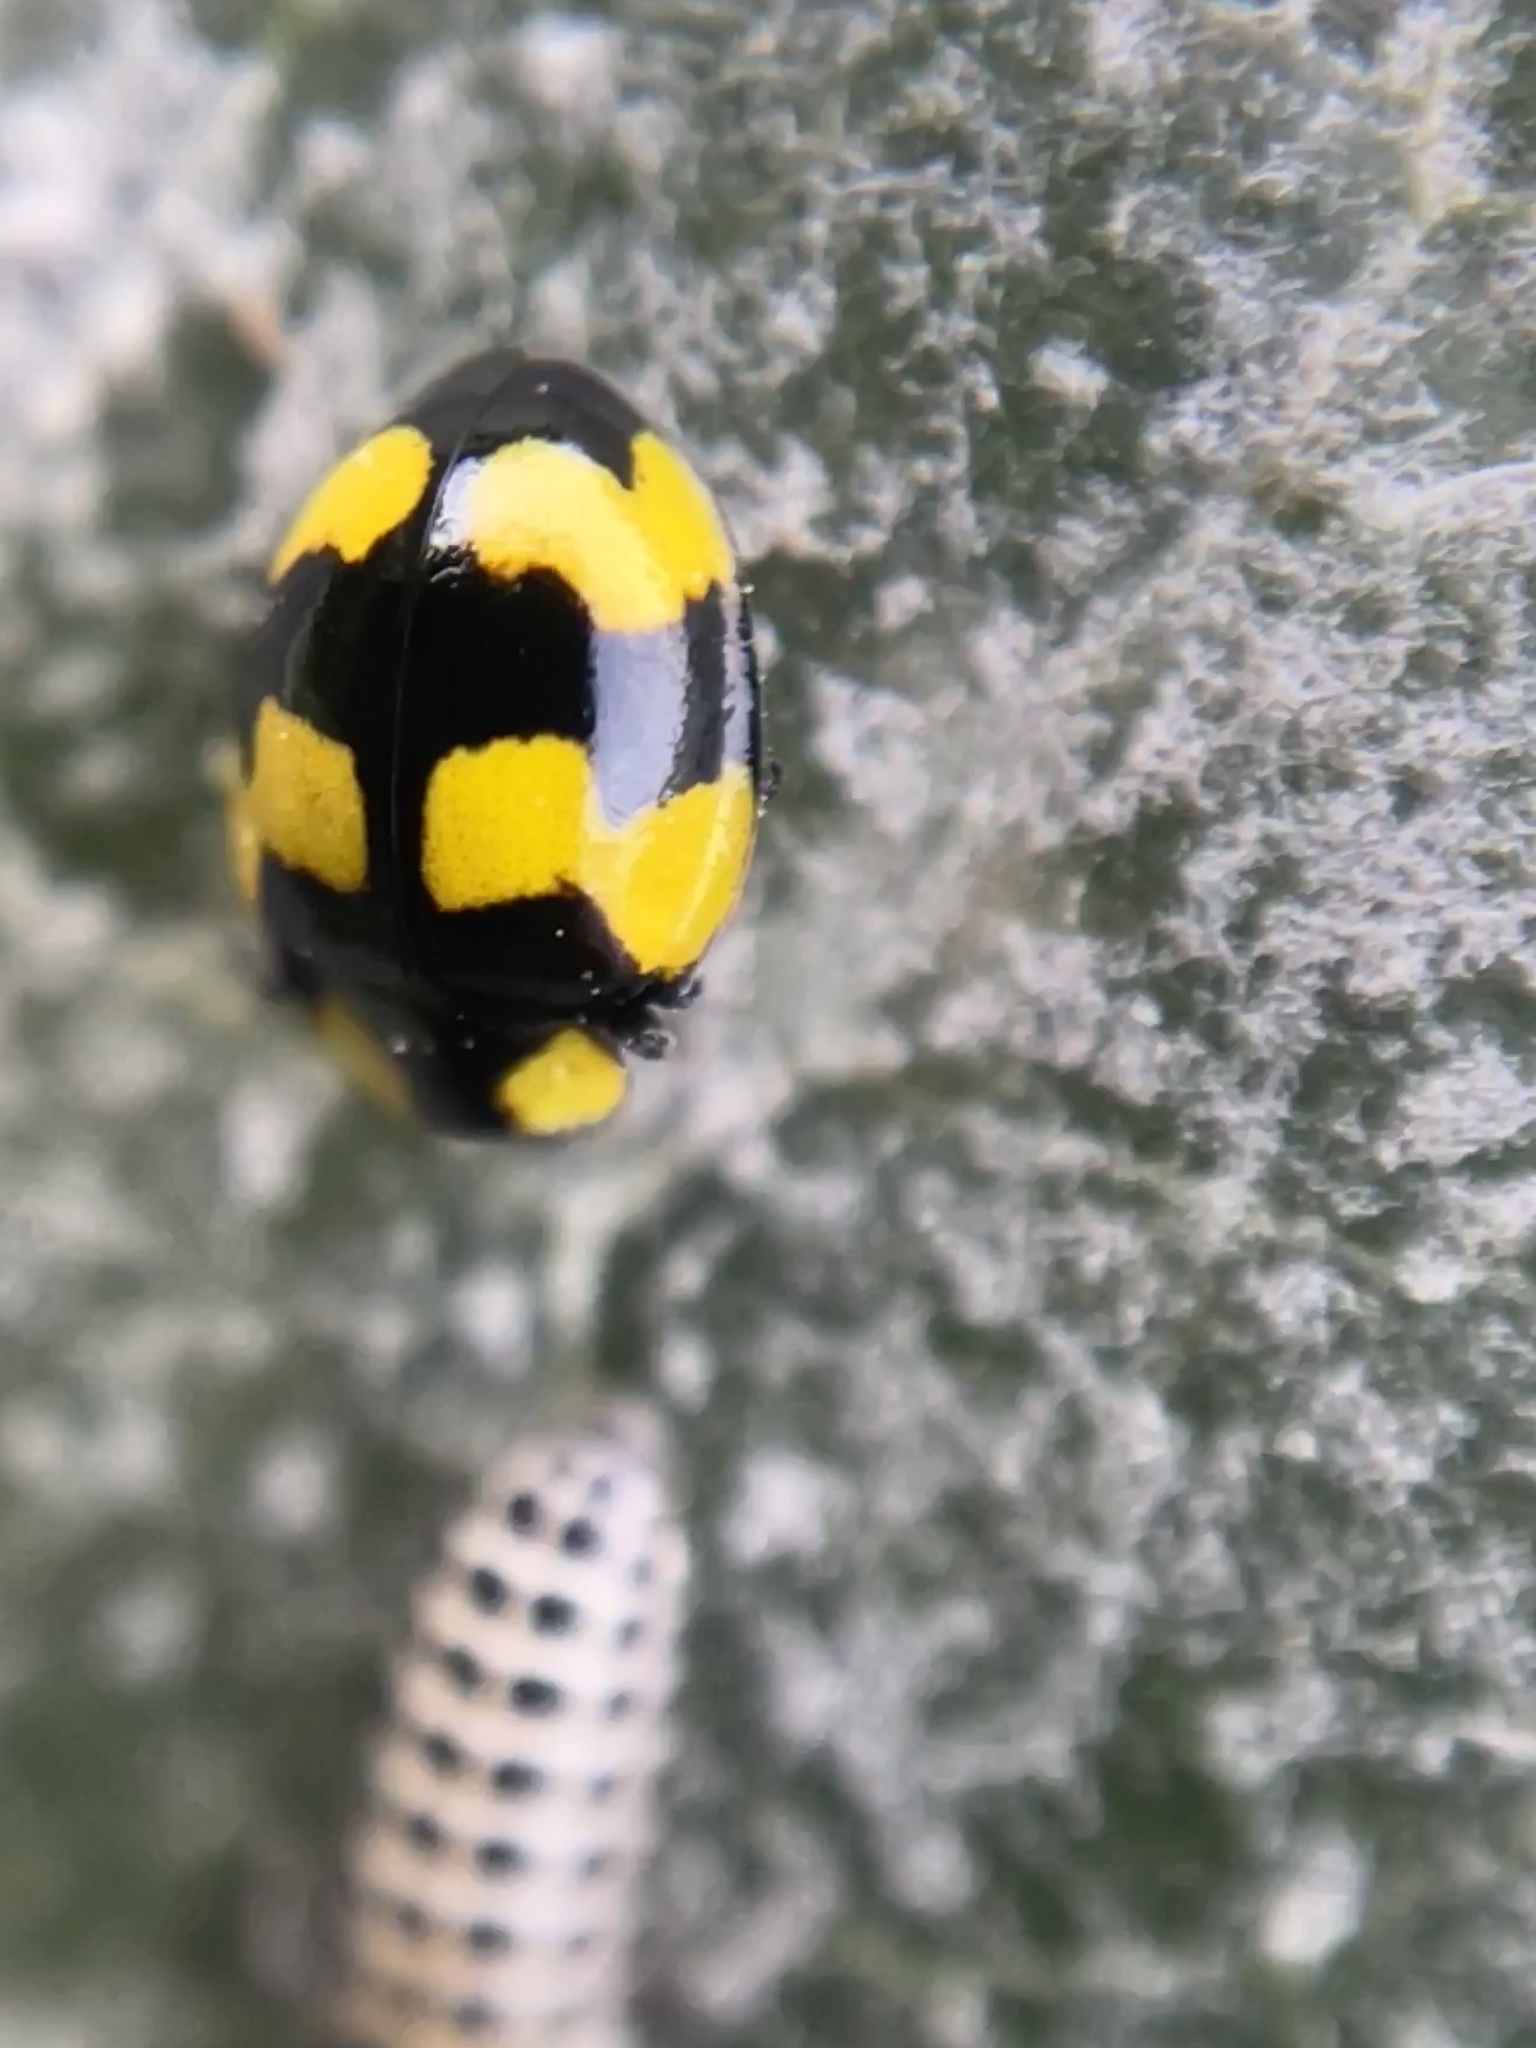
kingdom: Animalia
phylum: Arthropoda
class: Insecta
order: Coleoptera
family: Coccinellidae
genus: Illeis
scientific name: Illeis galbula
